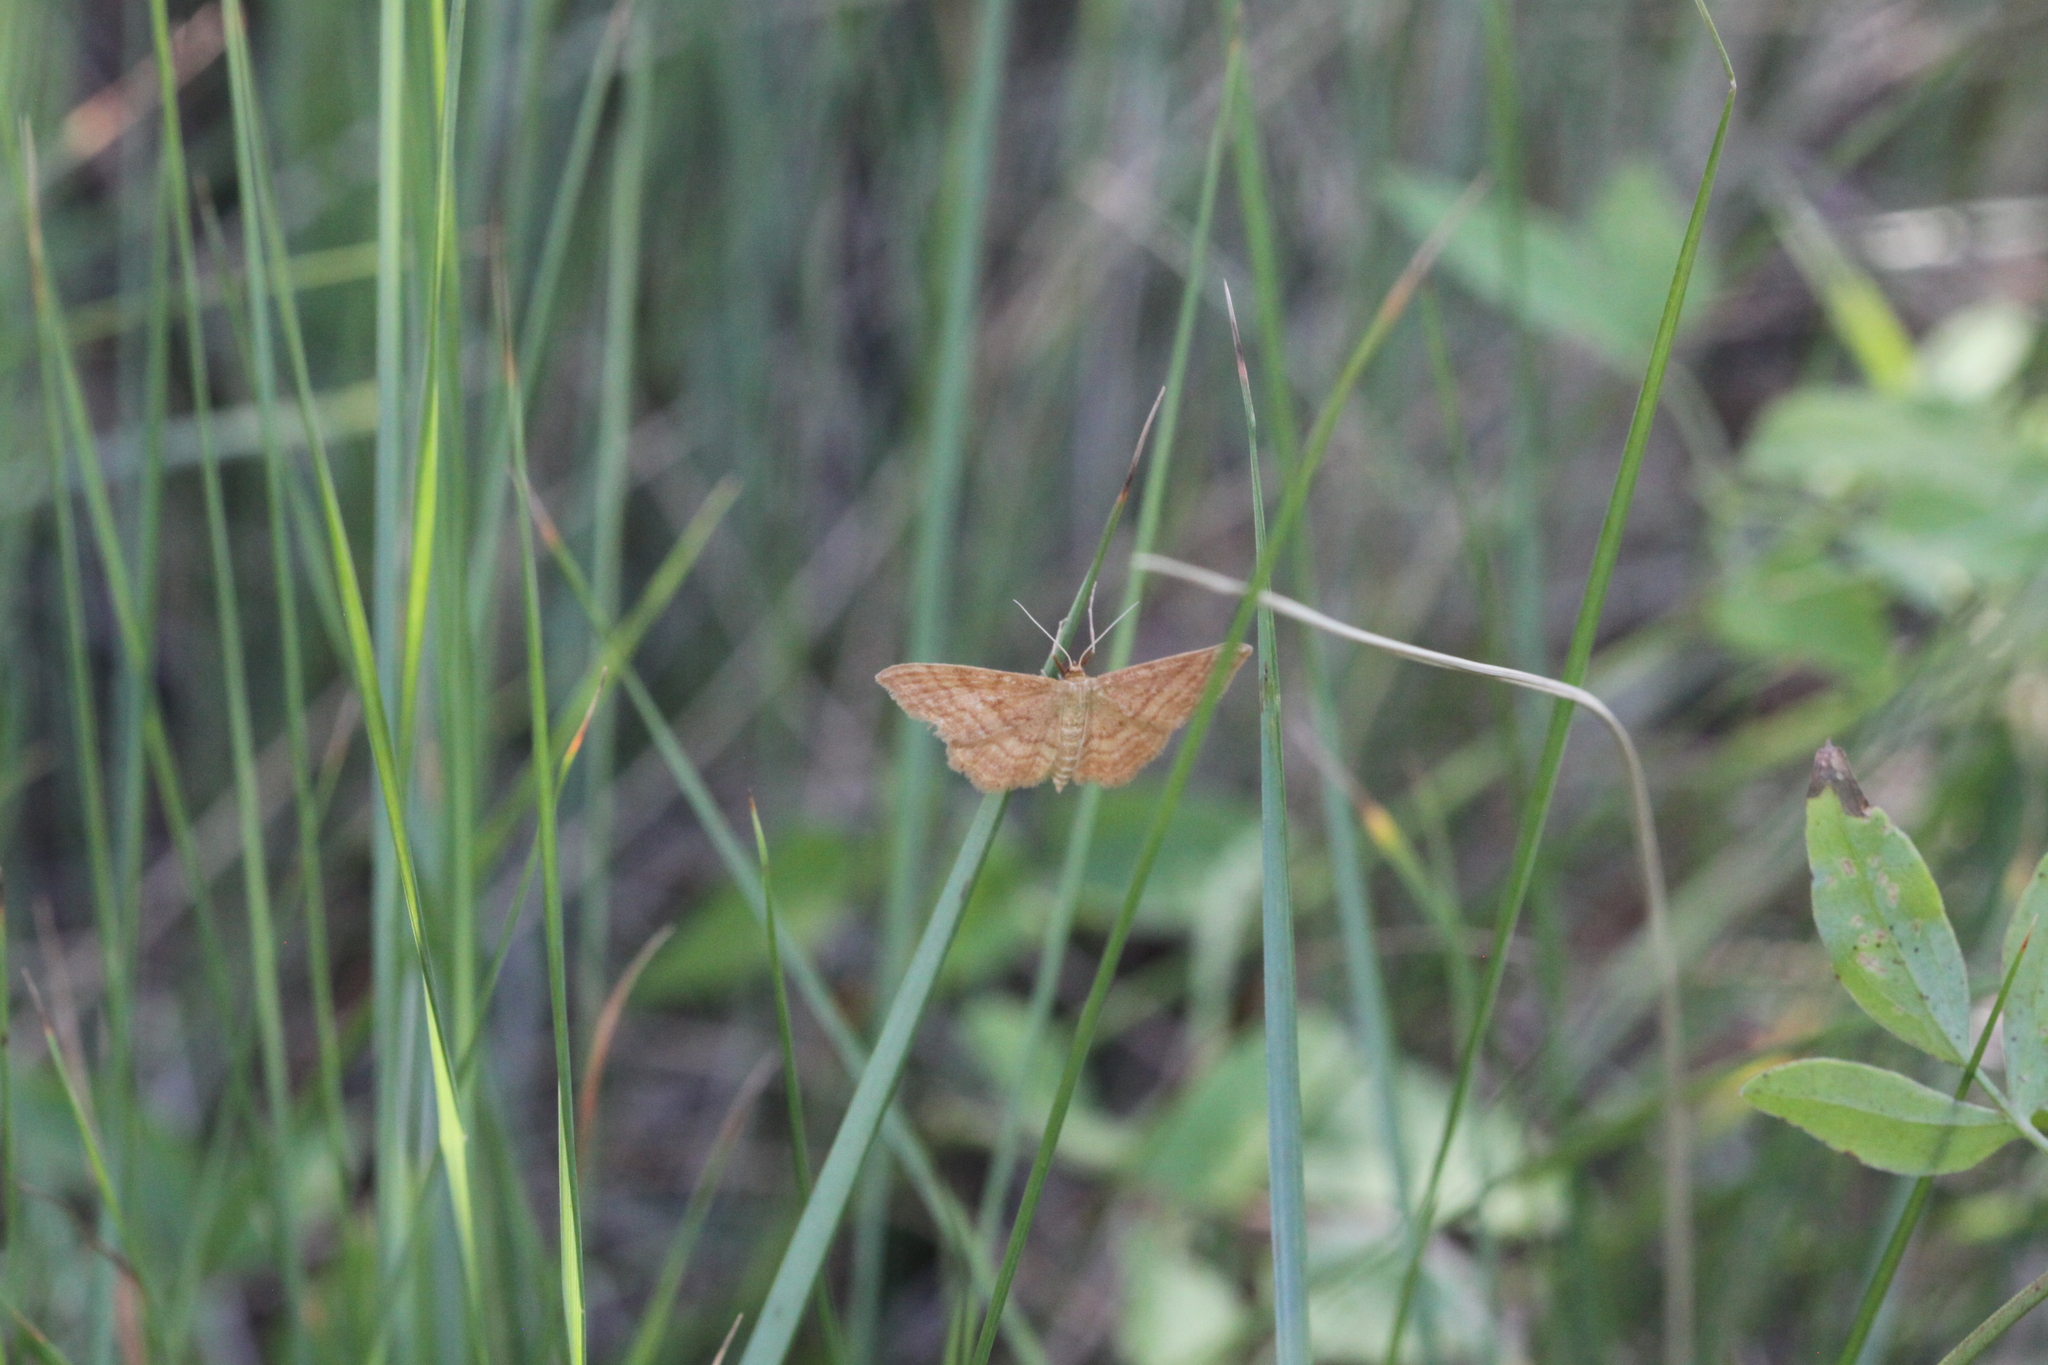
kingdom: Animalia
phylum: Arthropoda
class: Insecta
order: Lepidoptera
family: Geometridae
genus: Idaea
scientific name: Idaea ochrata
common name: Bright wave
